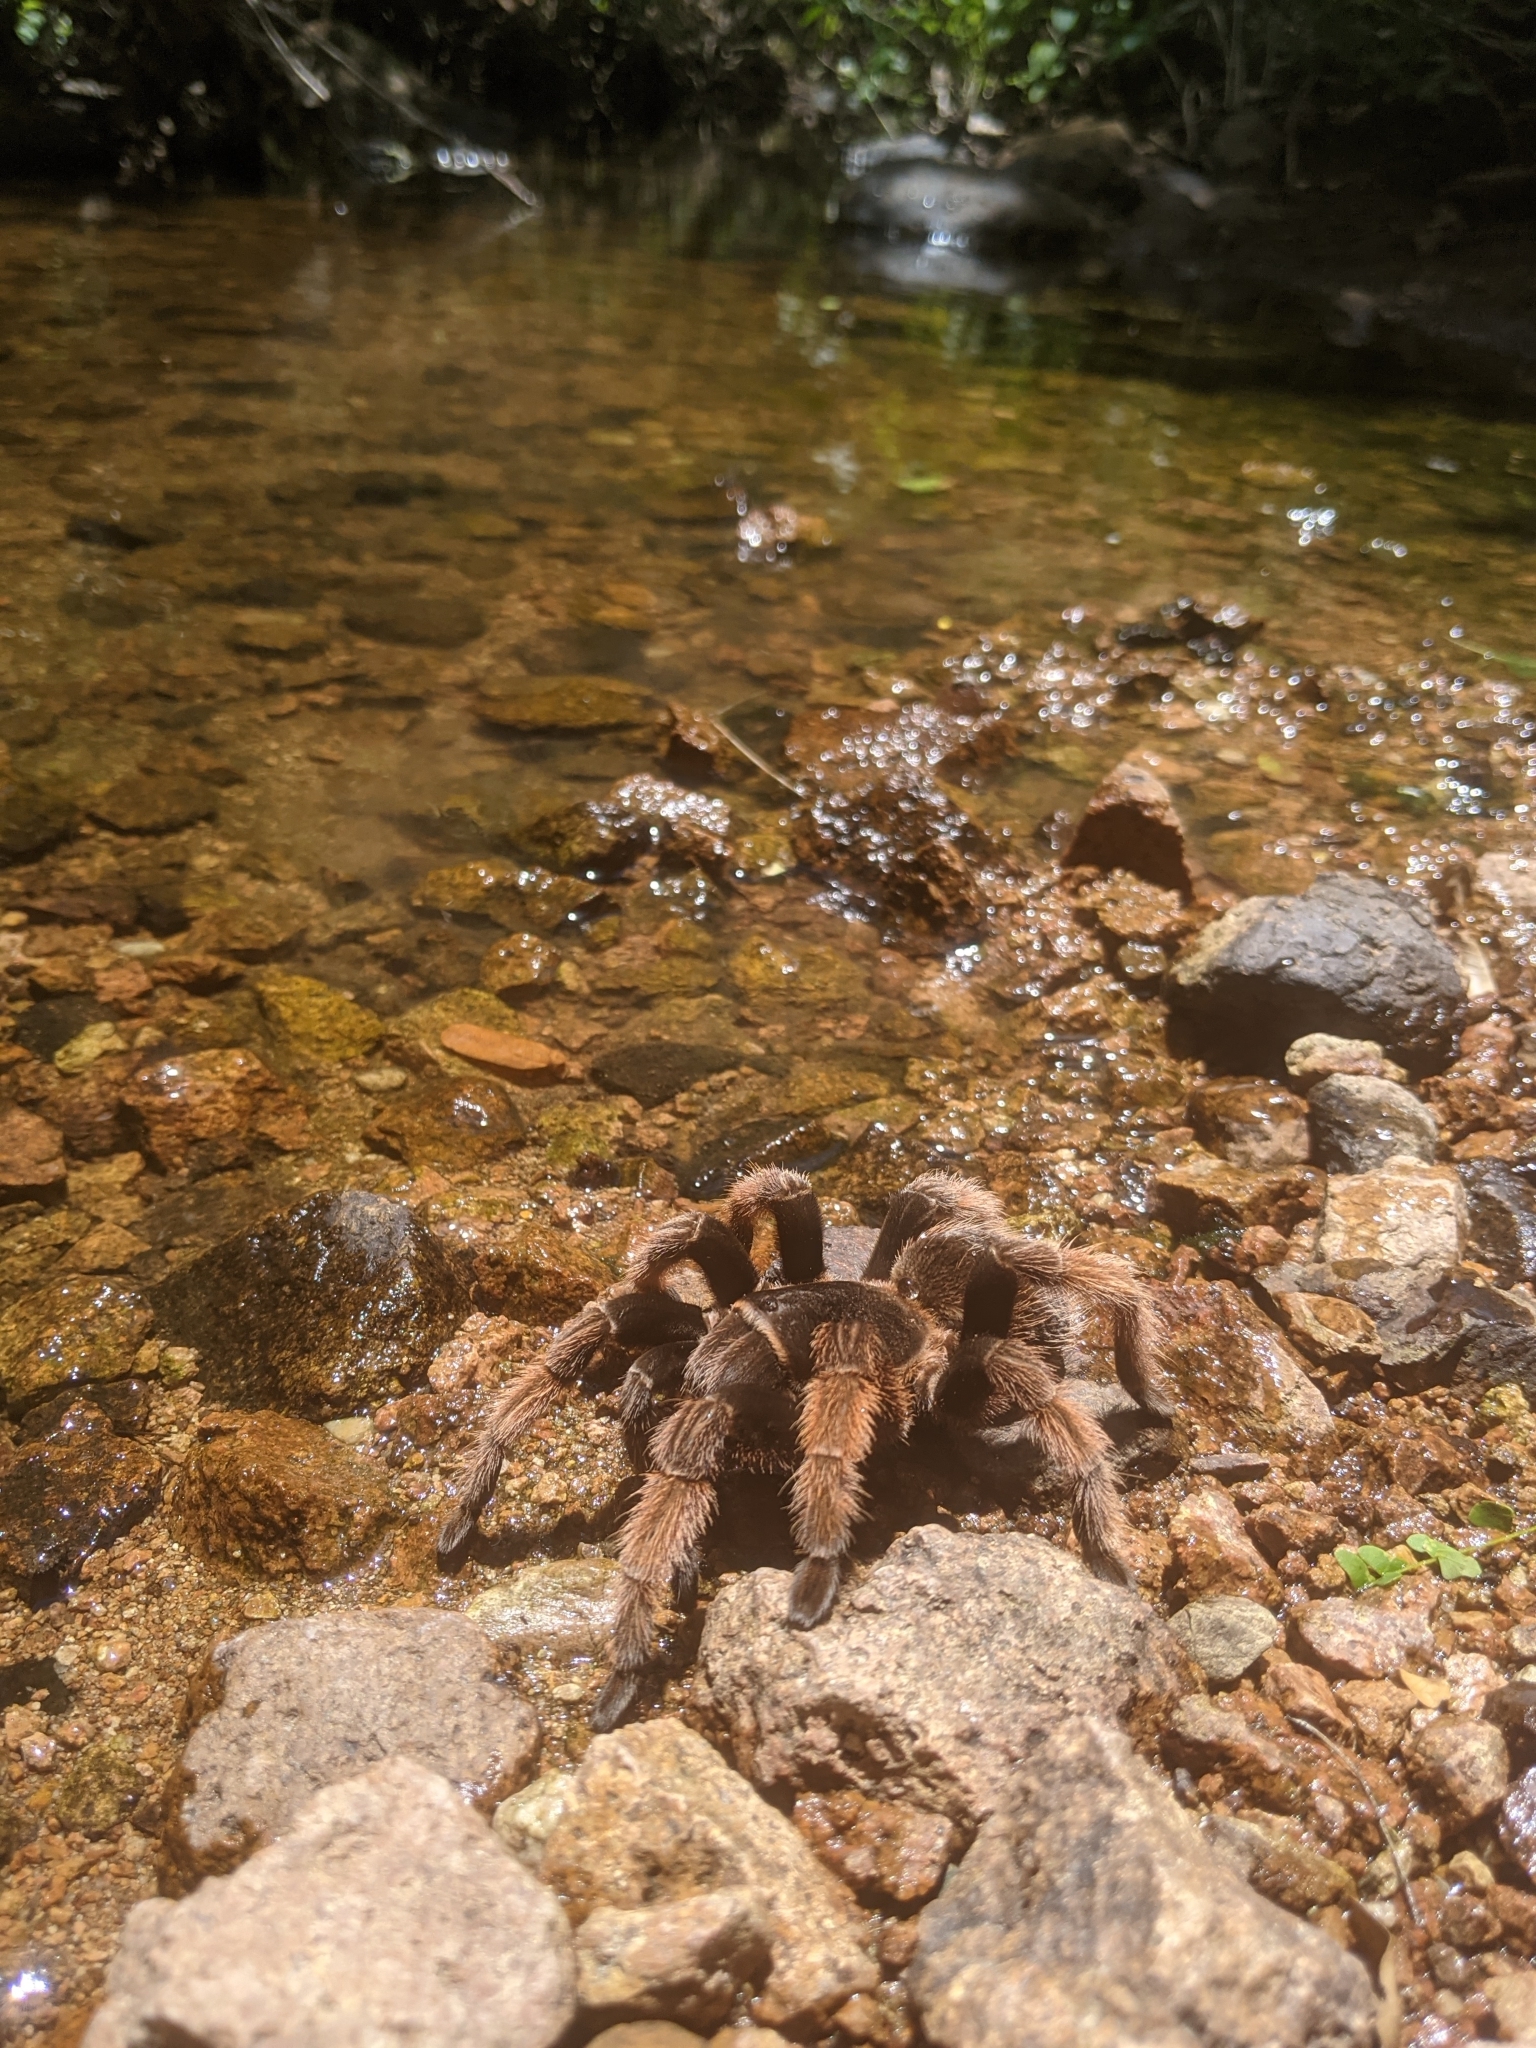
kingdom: Animalia
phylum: Arthropoda
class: Arachnida
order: Araneae
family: Theraphosidae
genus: Brachypelma
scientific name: Brachypelma klaasi
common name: Mexican pink beauty
